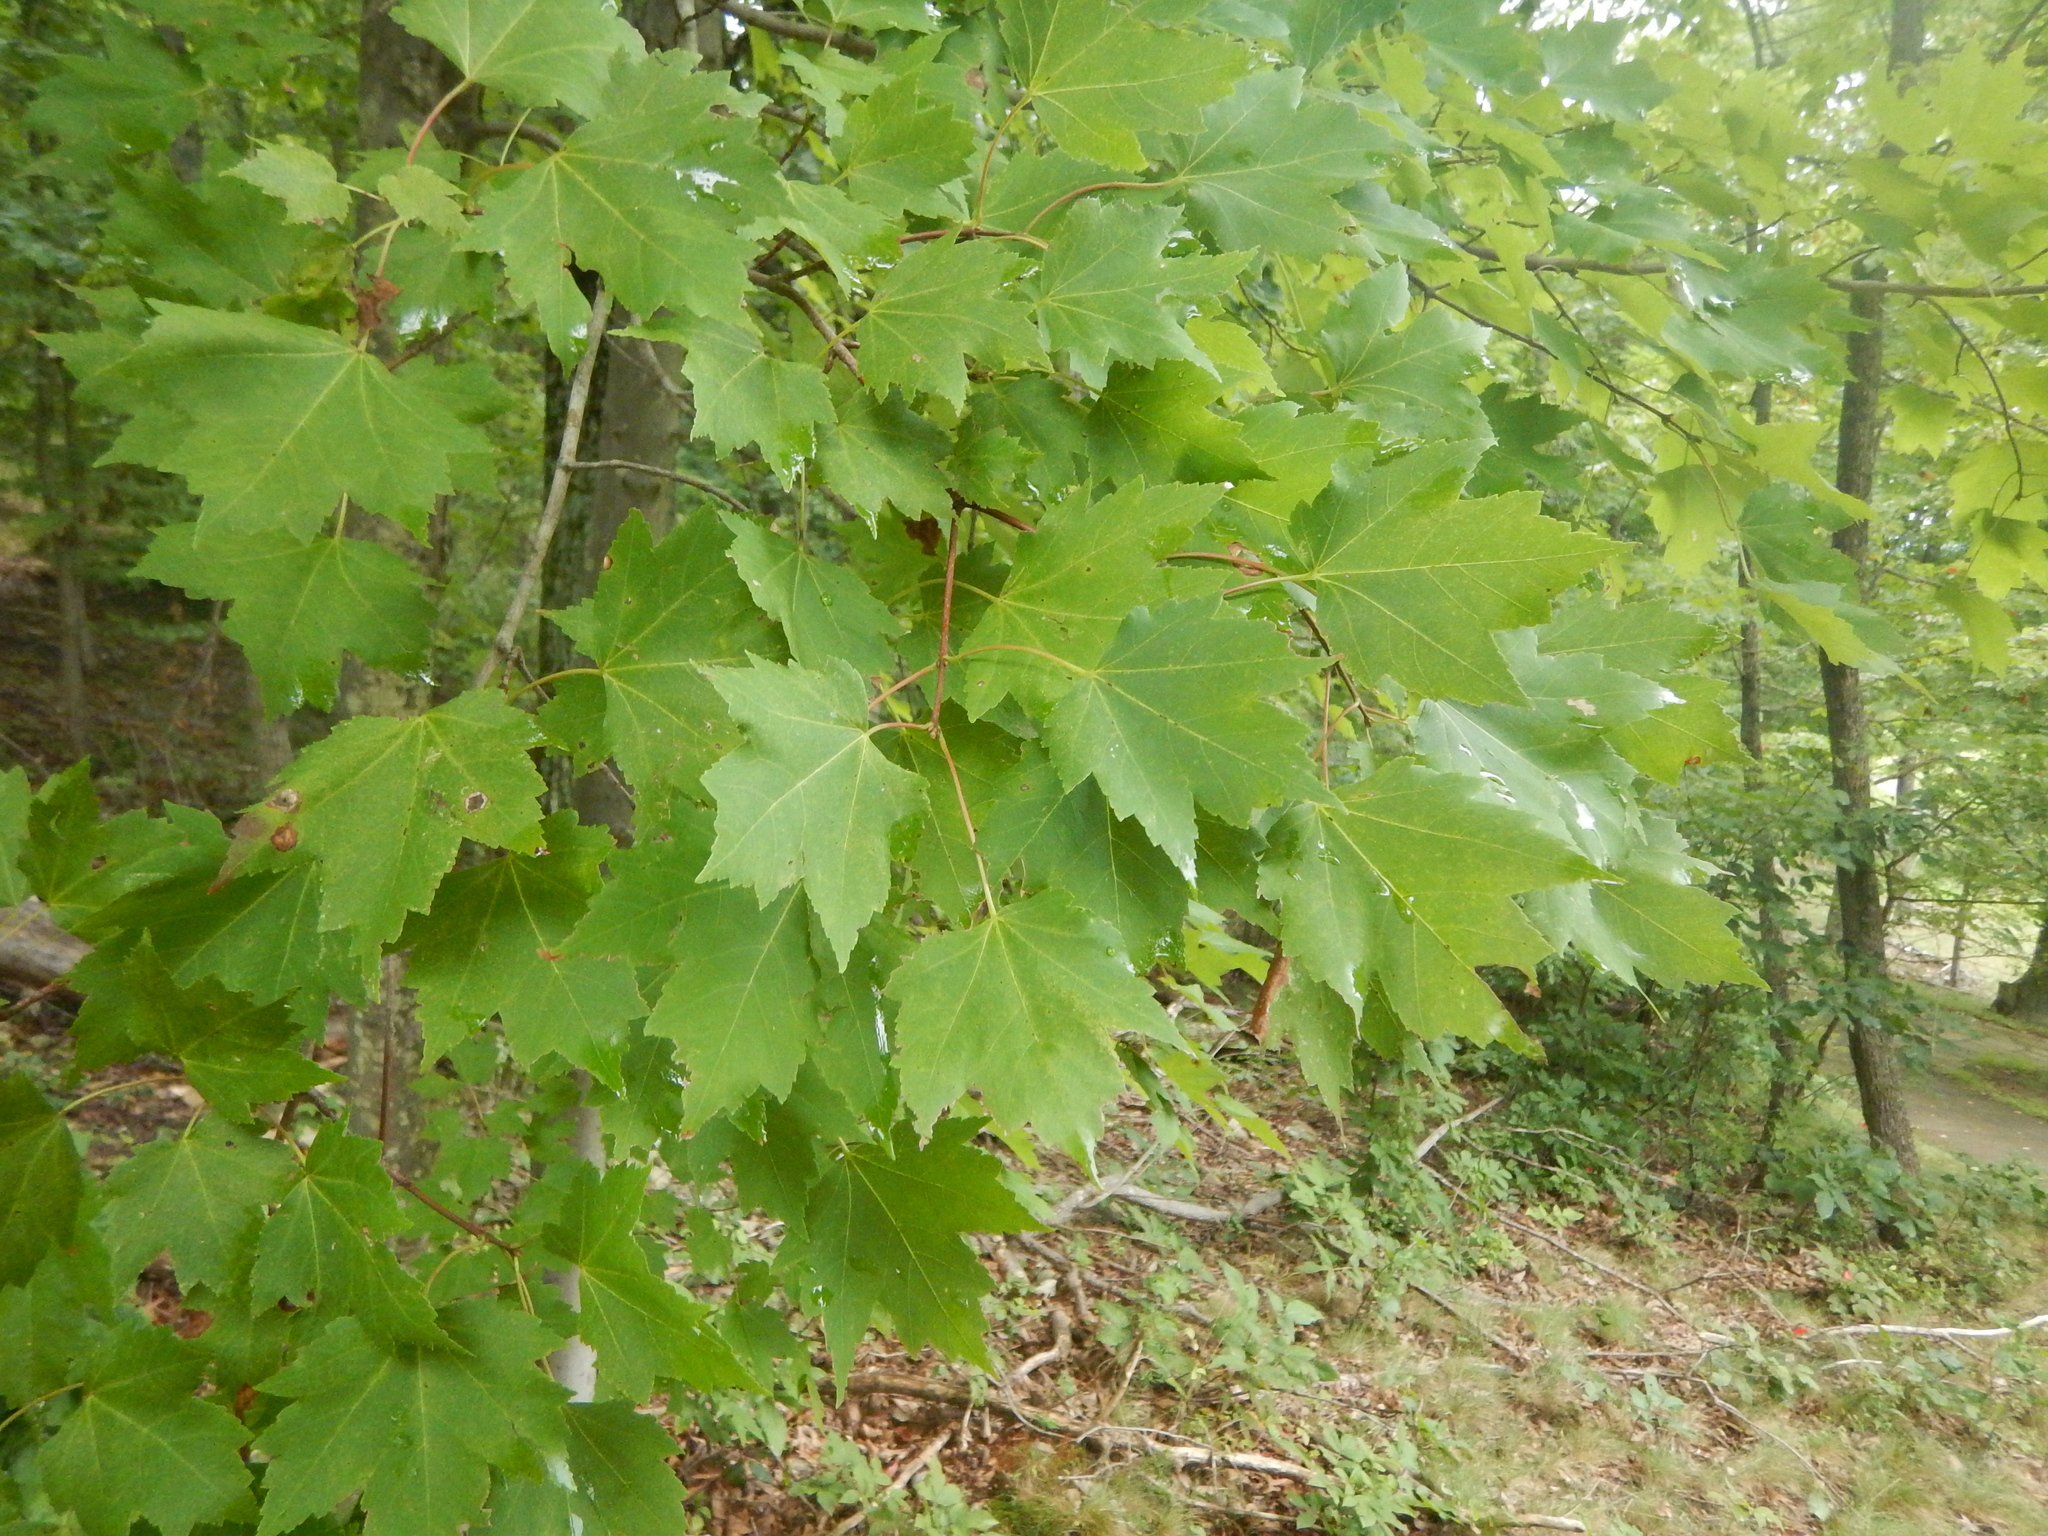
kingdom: Plantae
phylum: Tracheophyta
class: Magnoliopsida
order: Sapindales
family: Sapindaceae
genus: Acer
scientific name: Acer rubrum
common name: Red maple
